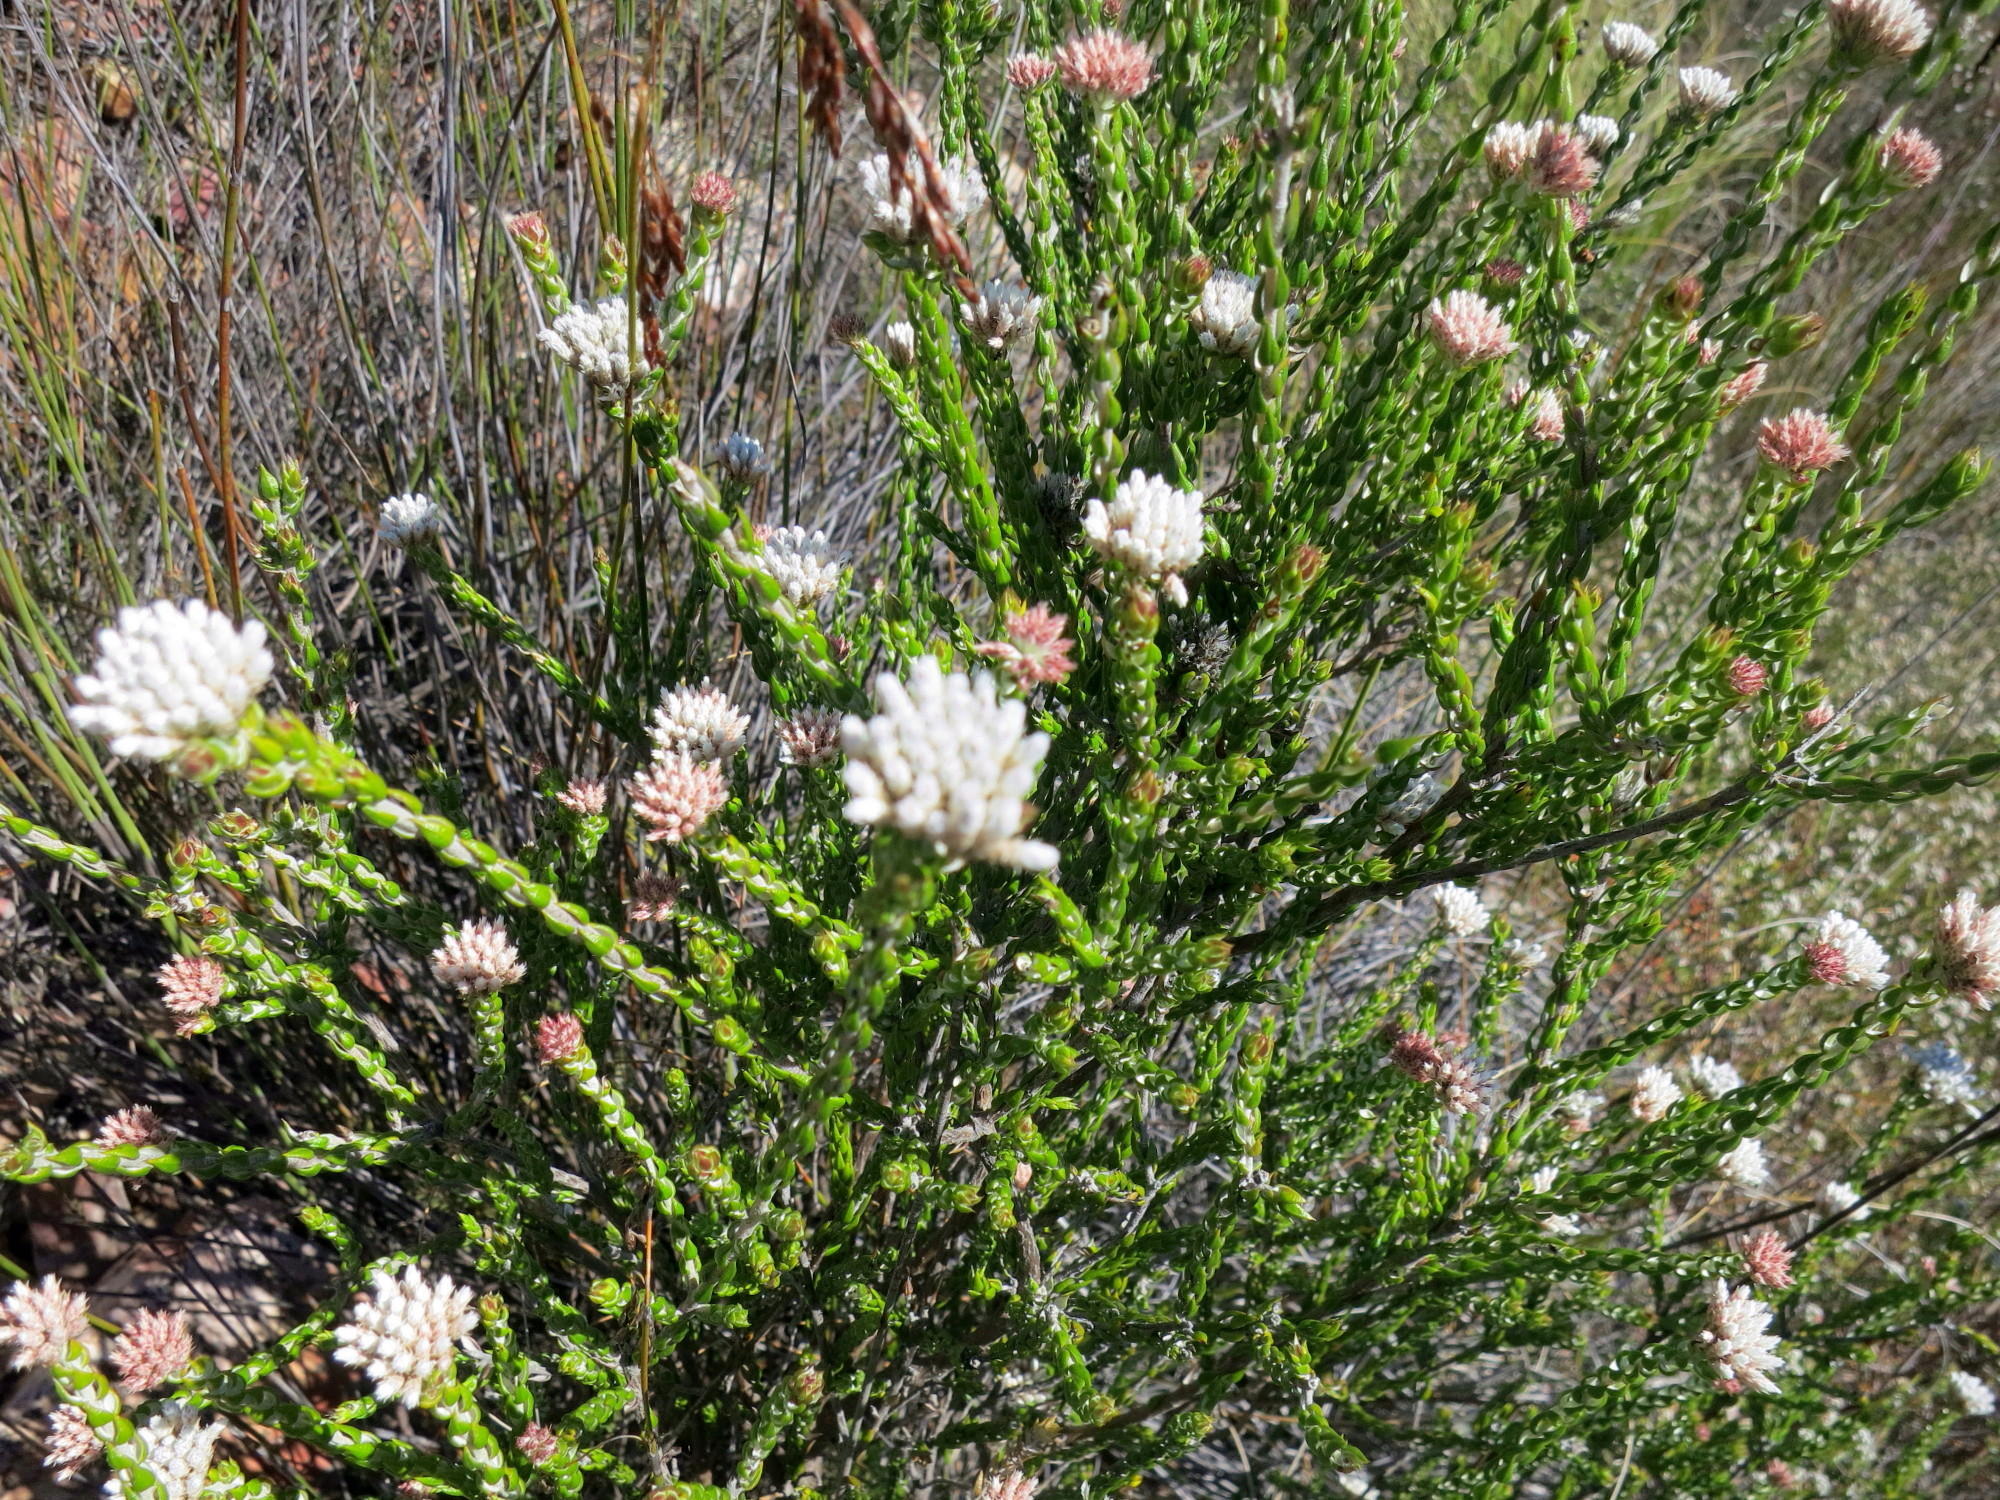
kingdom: Plantae
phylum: Tracheophyta
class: Magnoliopsida
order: Asterales
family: Asteraceae
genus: Metalasia
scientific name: Metalasia pulcherrima
